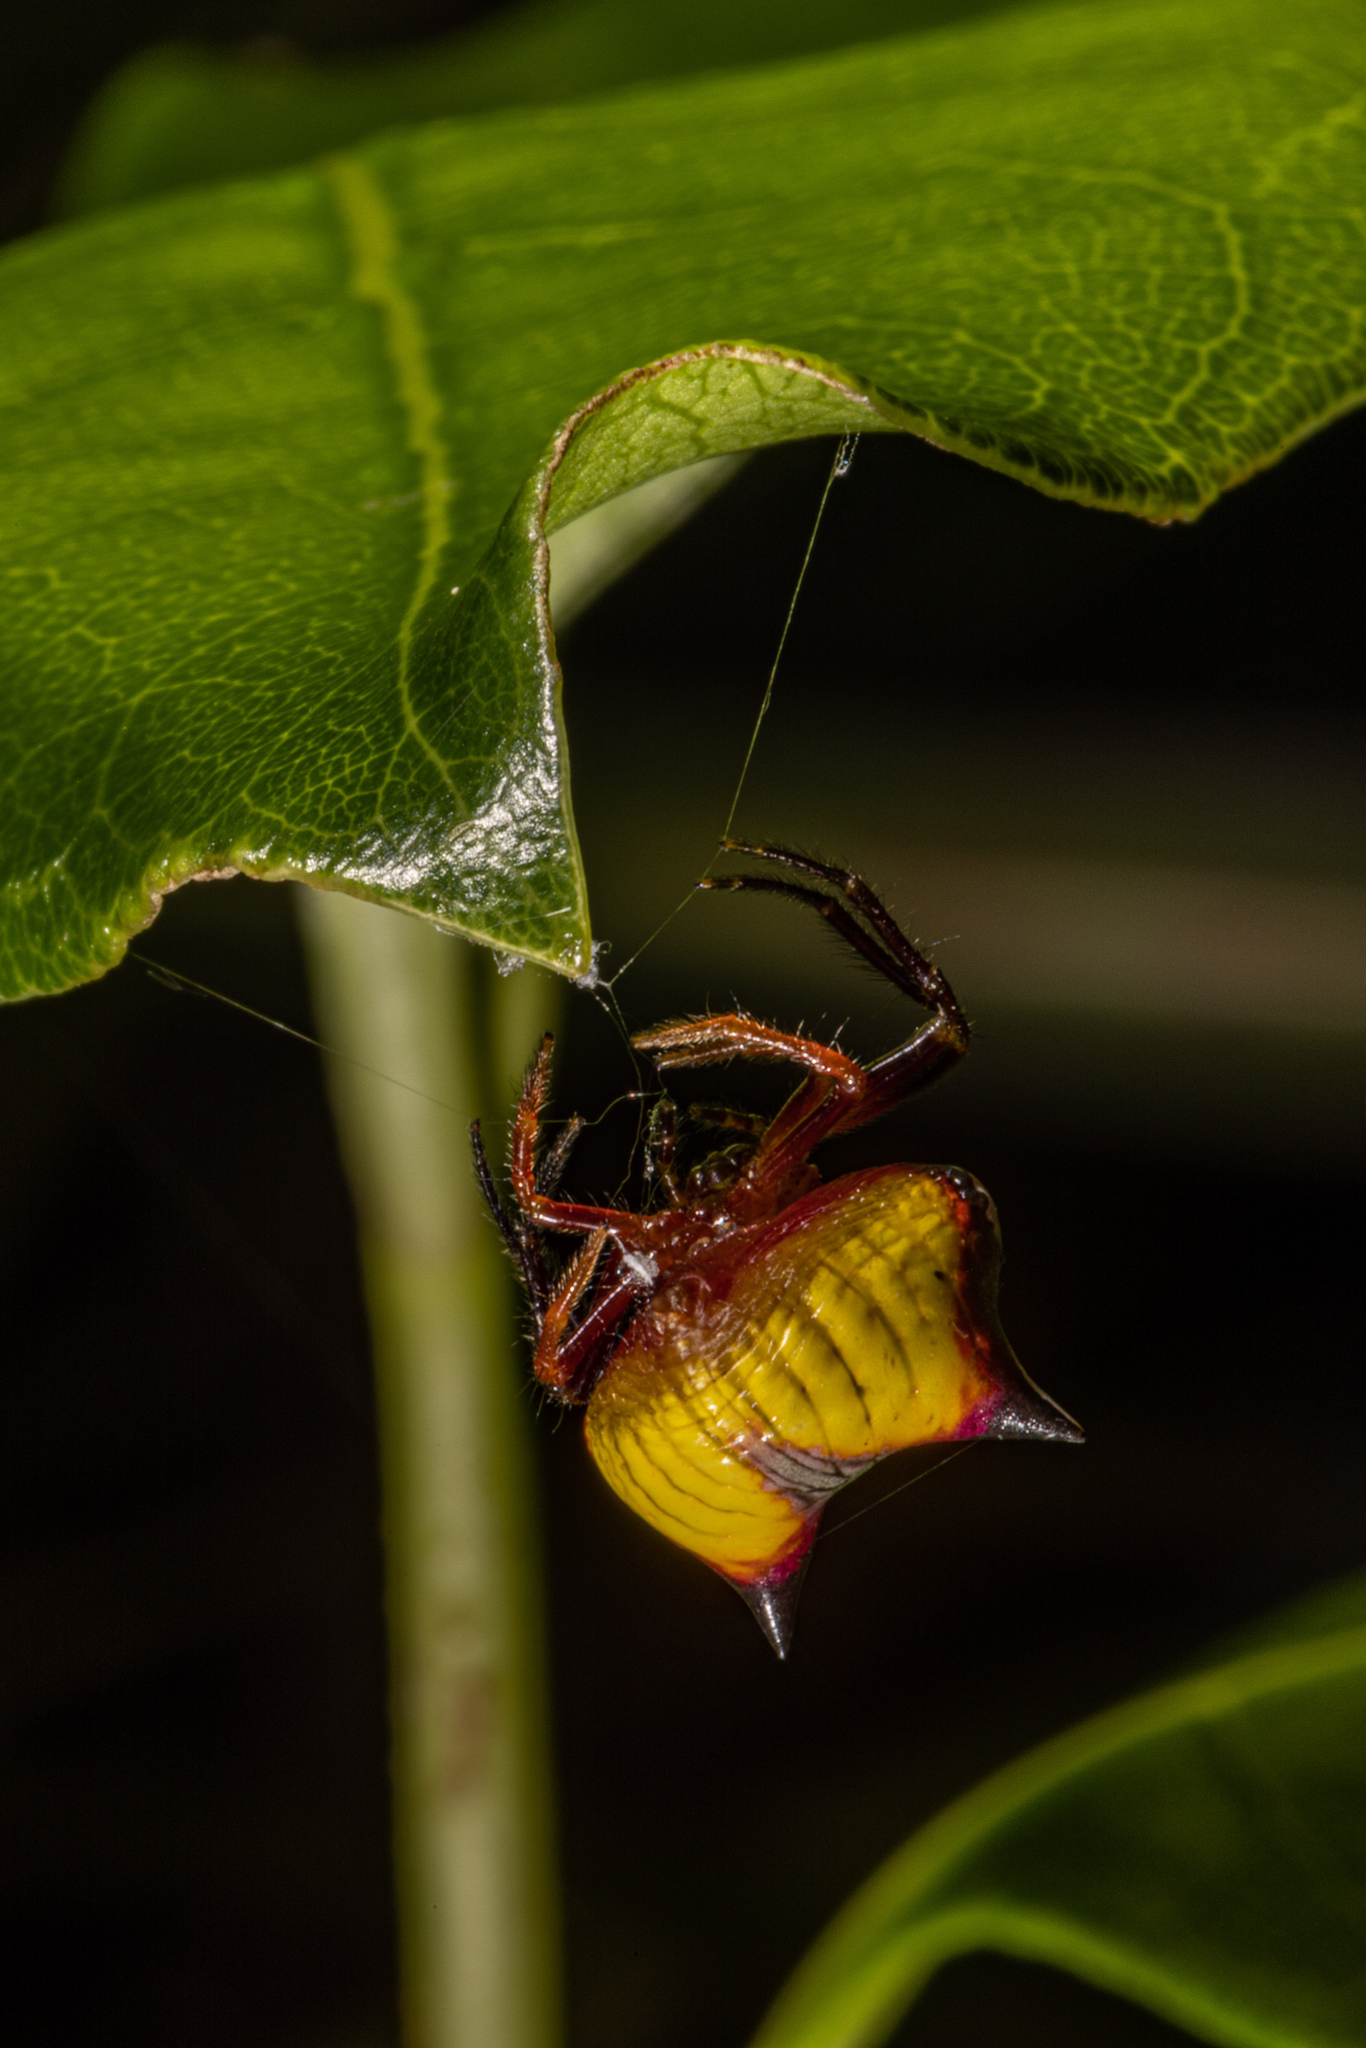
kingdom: Animalia
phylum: Arthropoda
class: Arachnida
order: Araneae
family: Araneidae
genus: Poecilopachys
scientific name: Poecilopachys australasia
